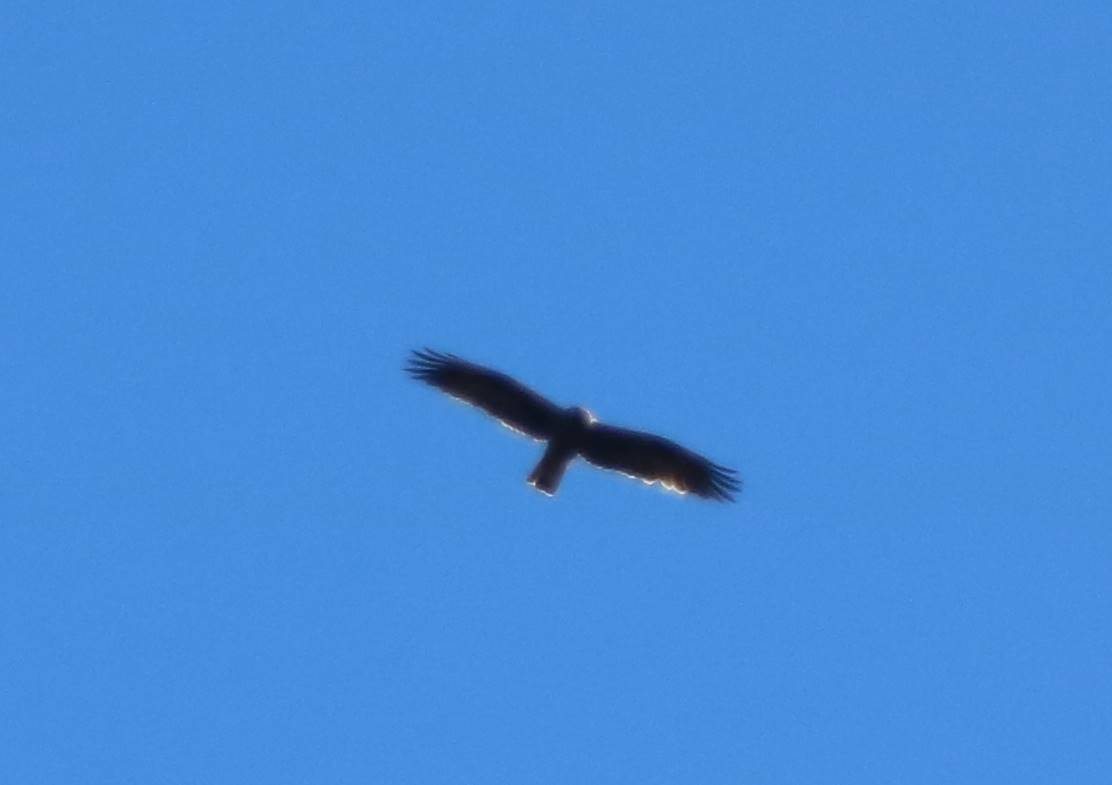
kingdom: Animalia
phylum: Chordata
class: Aves
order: Accipitriformes
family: Accipitridae
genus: Hieraaetus
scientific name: Hieraaetus pennatus
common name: Booted eagle
